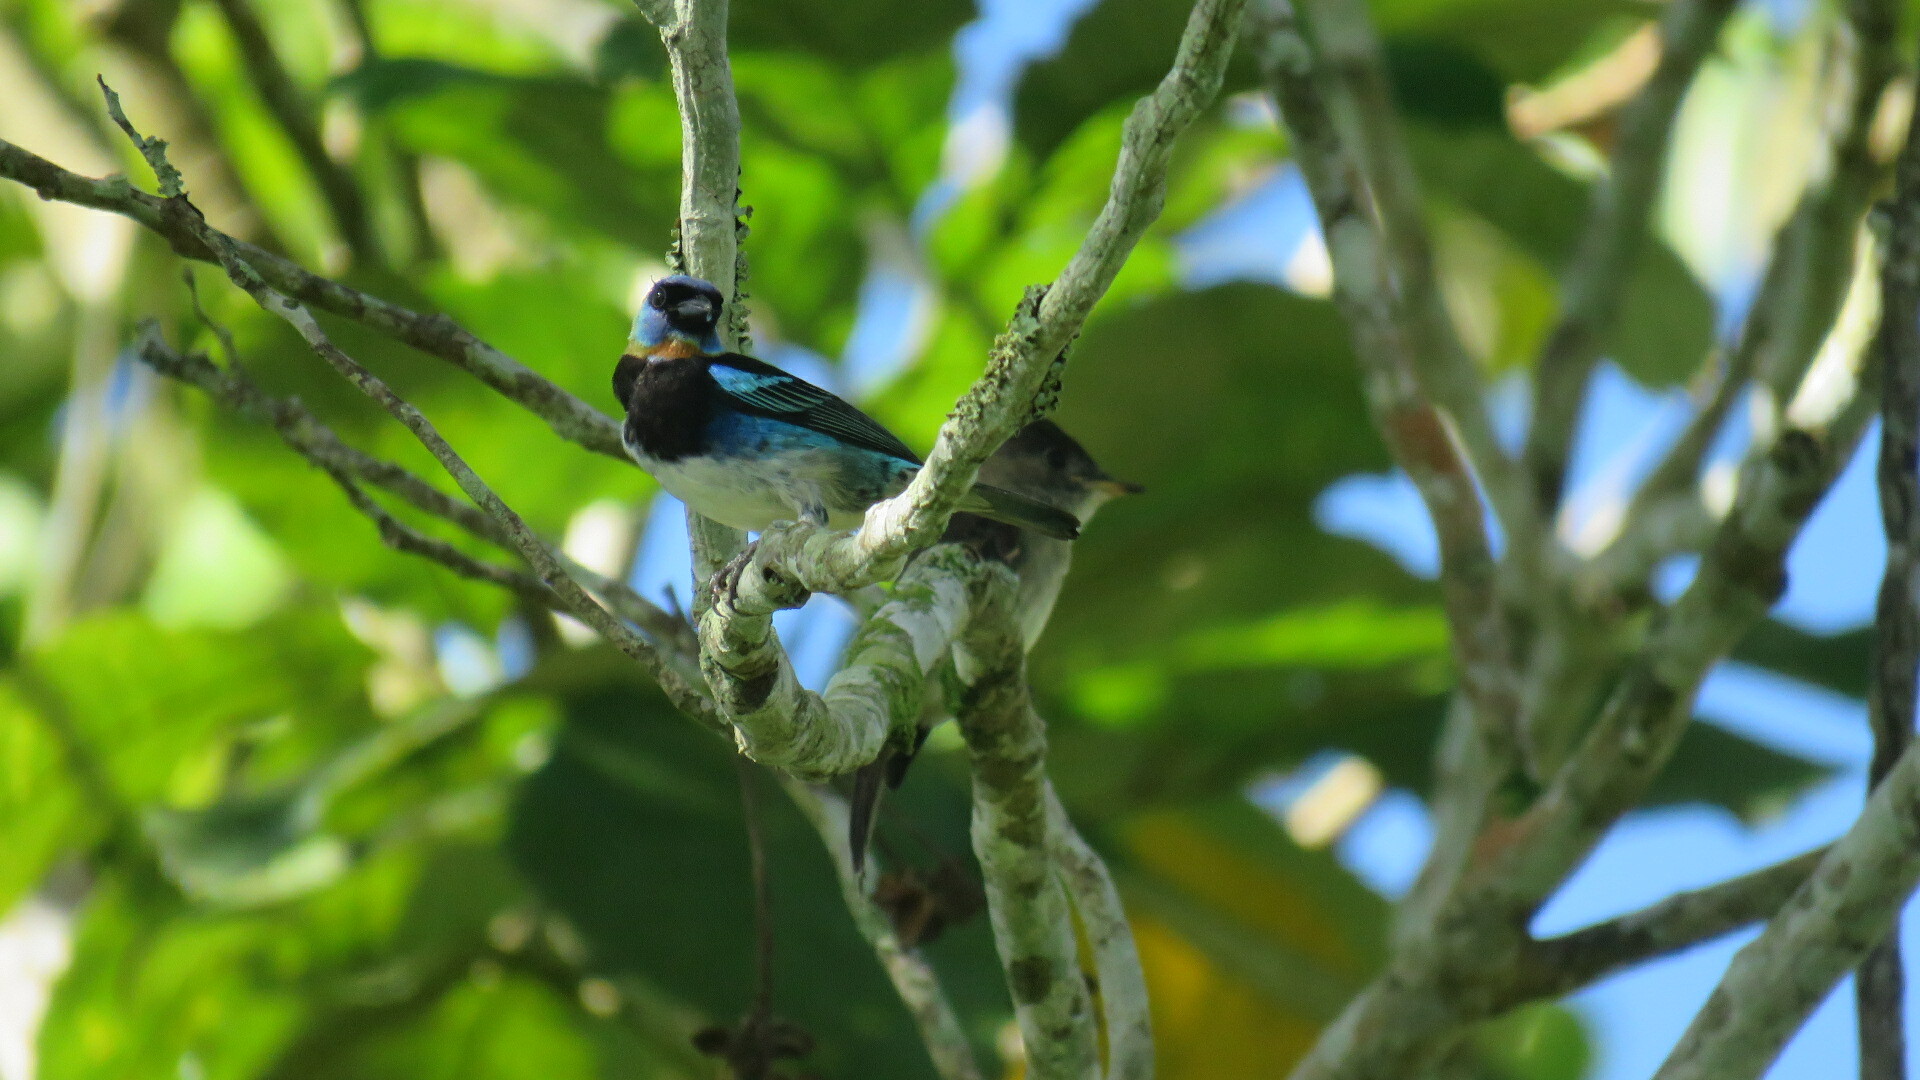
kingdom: Animalia
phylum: Chordata
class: Aves
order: Passeriformes
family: Thraupidae
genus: Stilpnia
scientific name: Stilpnia larvata
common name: Golden-hooded tanager
